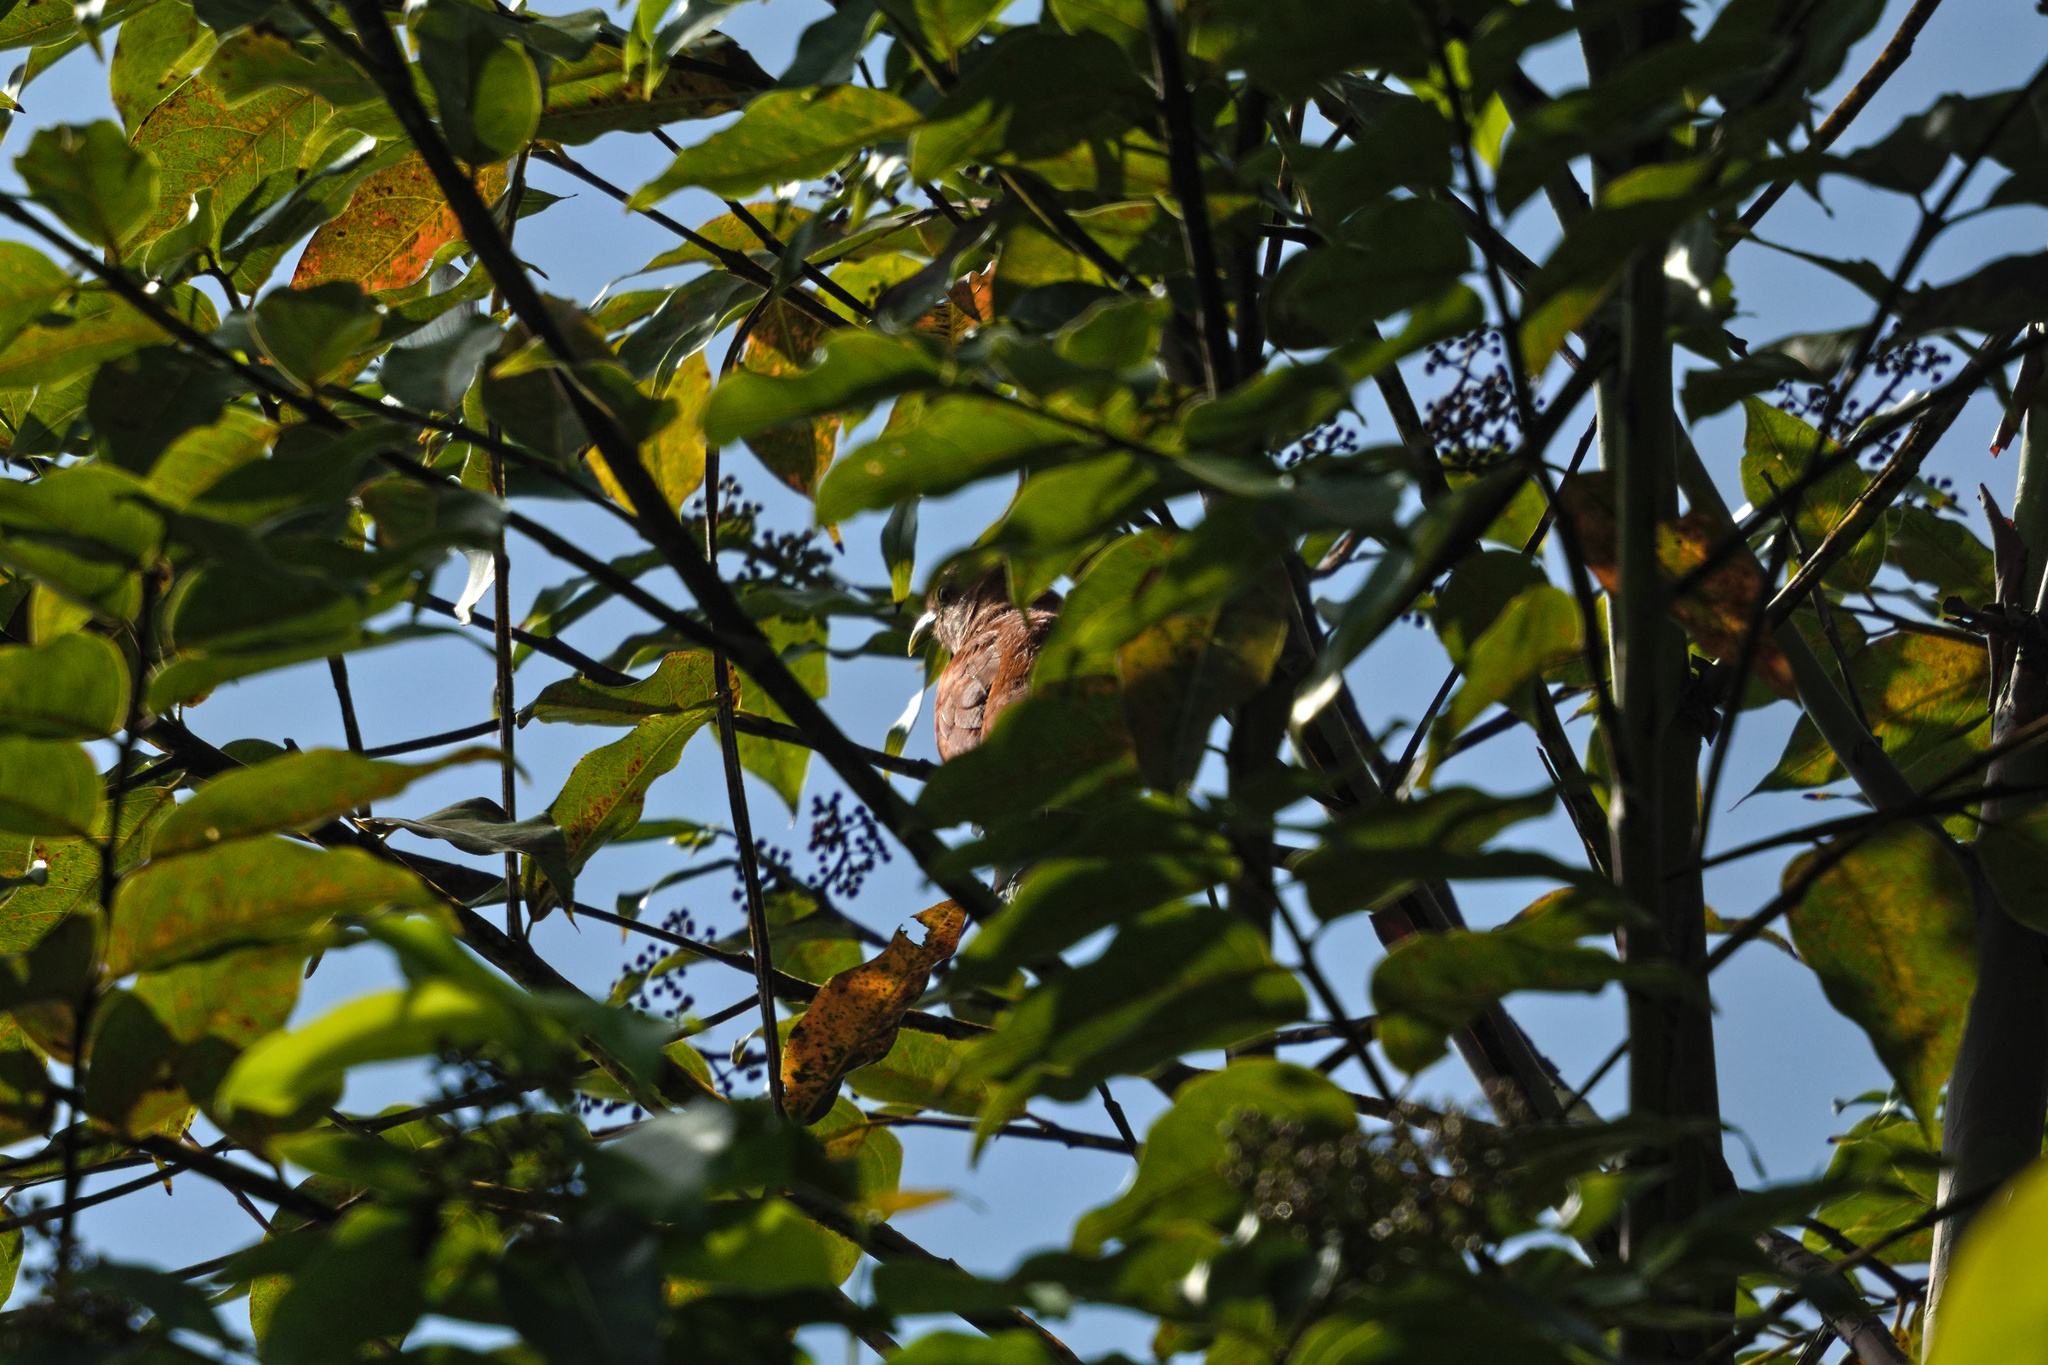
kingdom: Animalia
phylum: Chordata
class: Aves
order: Cuculiformes
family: Cuculidae
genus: Piaya
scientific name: Piaya cayana
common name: Squirrel cuckoo
